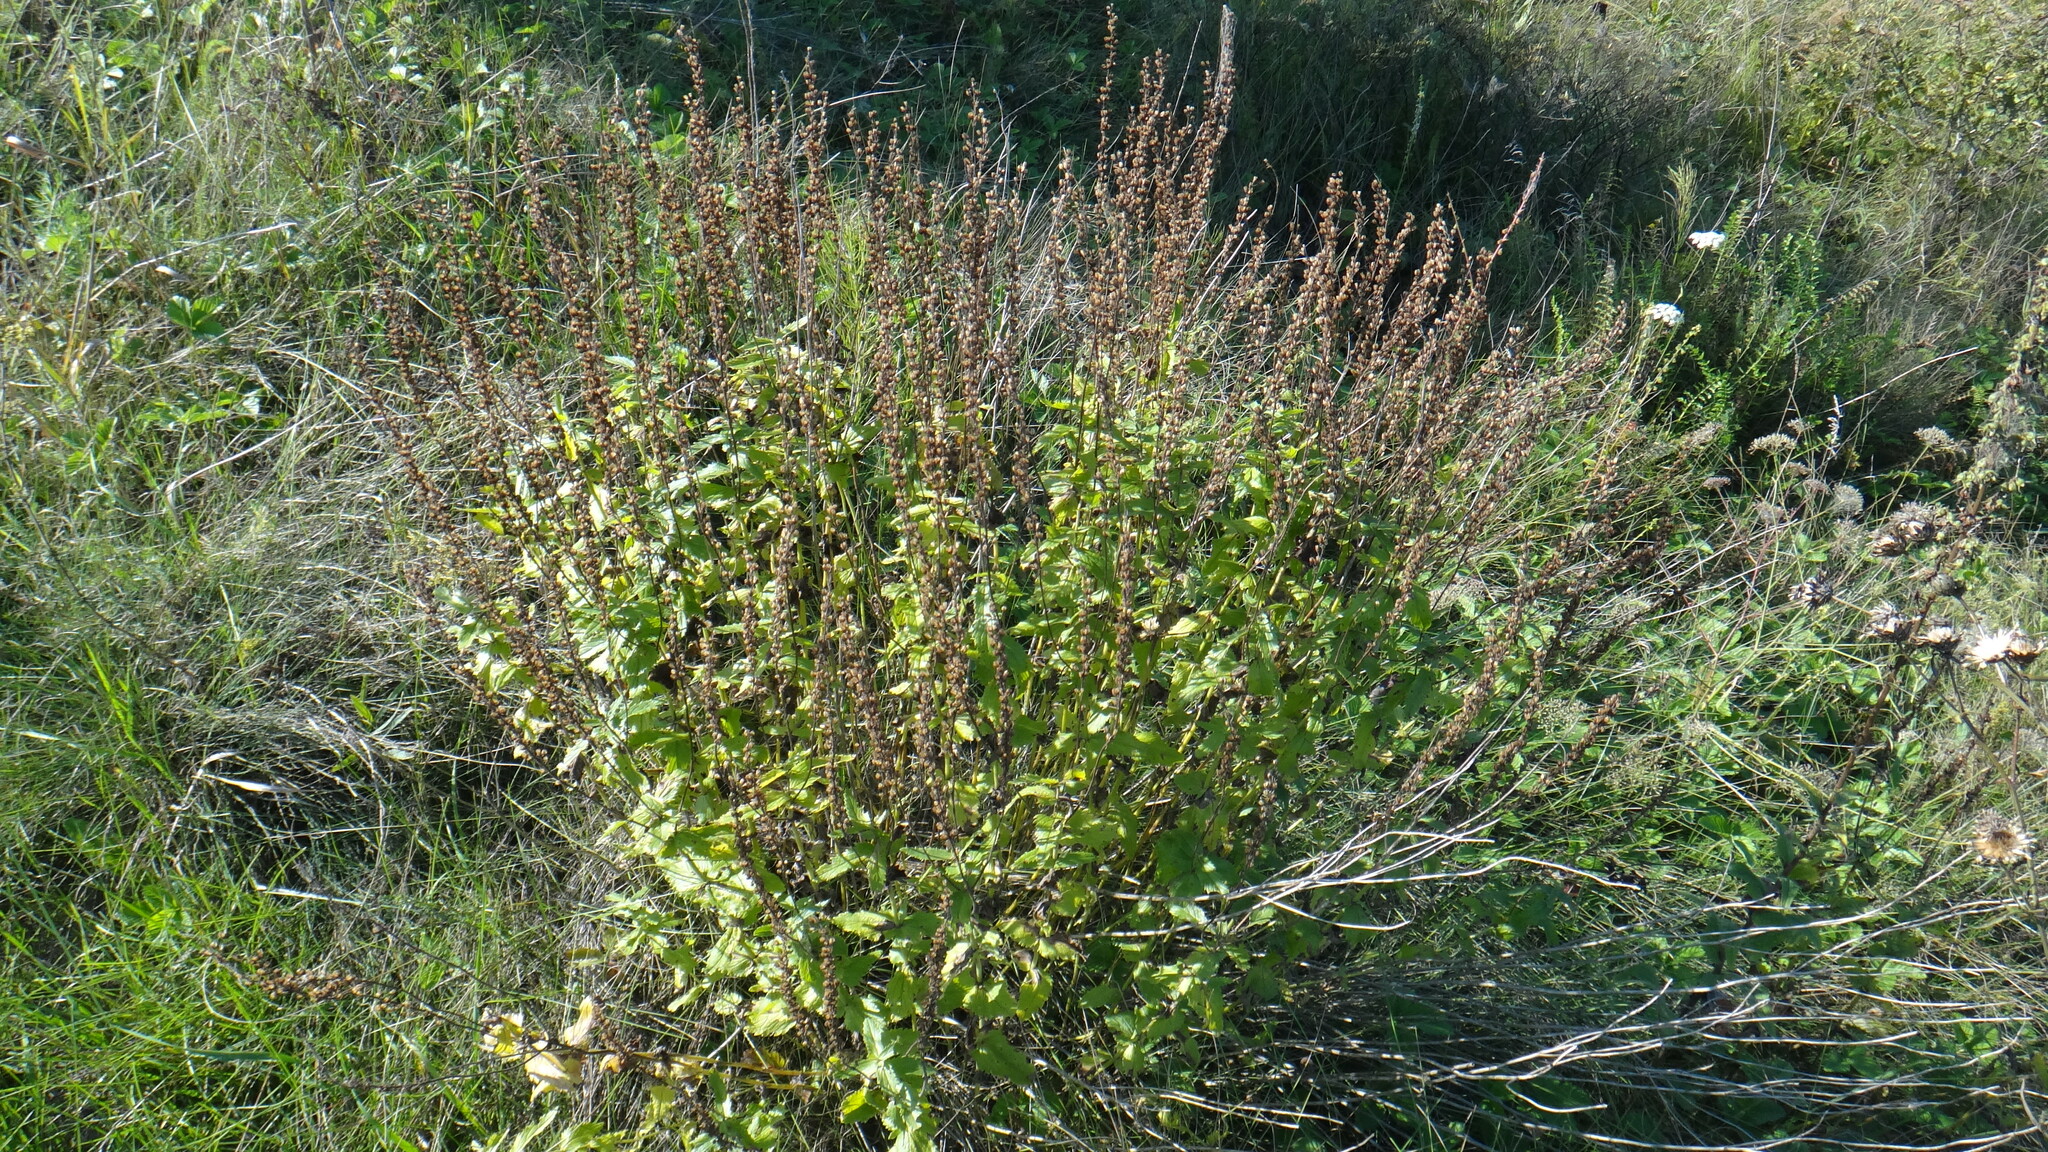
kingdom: Plantae
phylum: Tracheophyta
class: Magnoliopsida
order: Lamiales
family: Plantaginaceae
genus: Veronica
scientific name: Veronica teucrium
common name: Large speedwell
